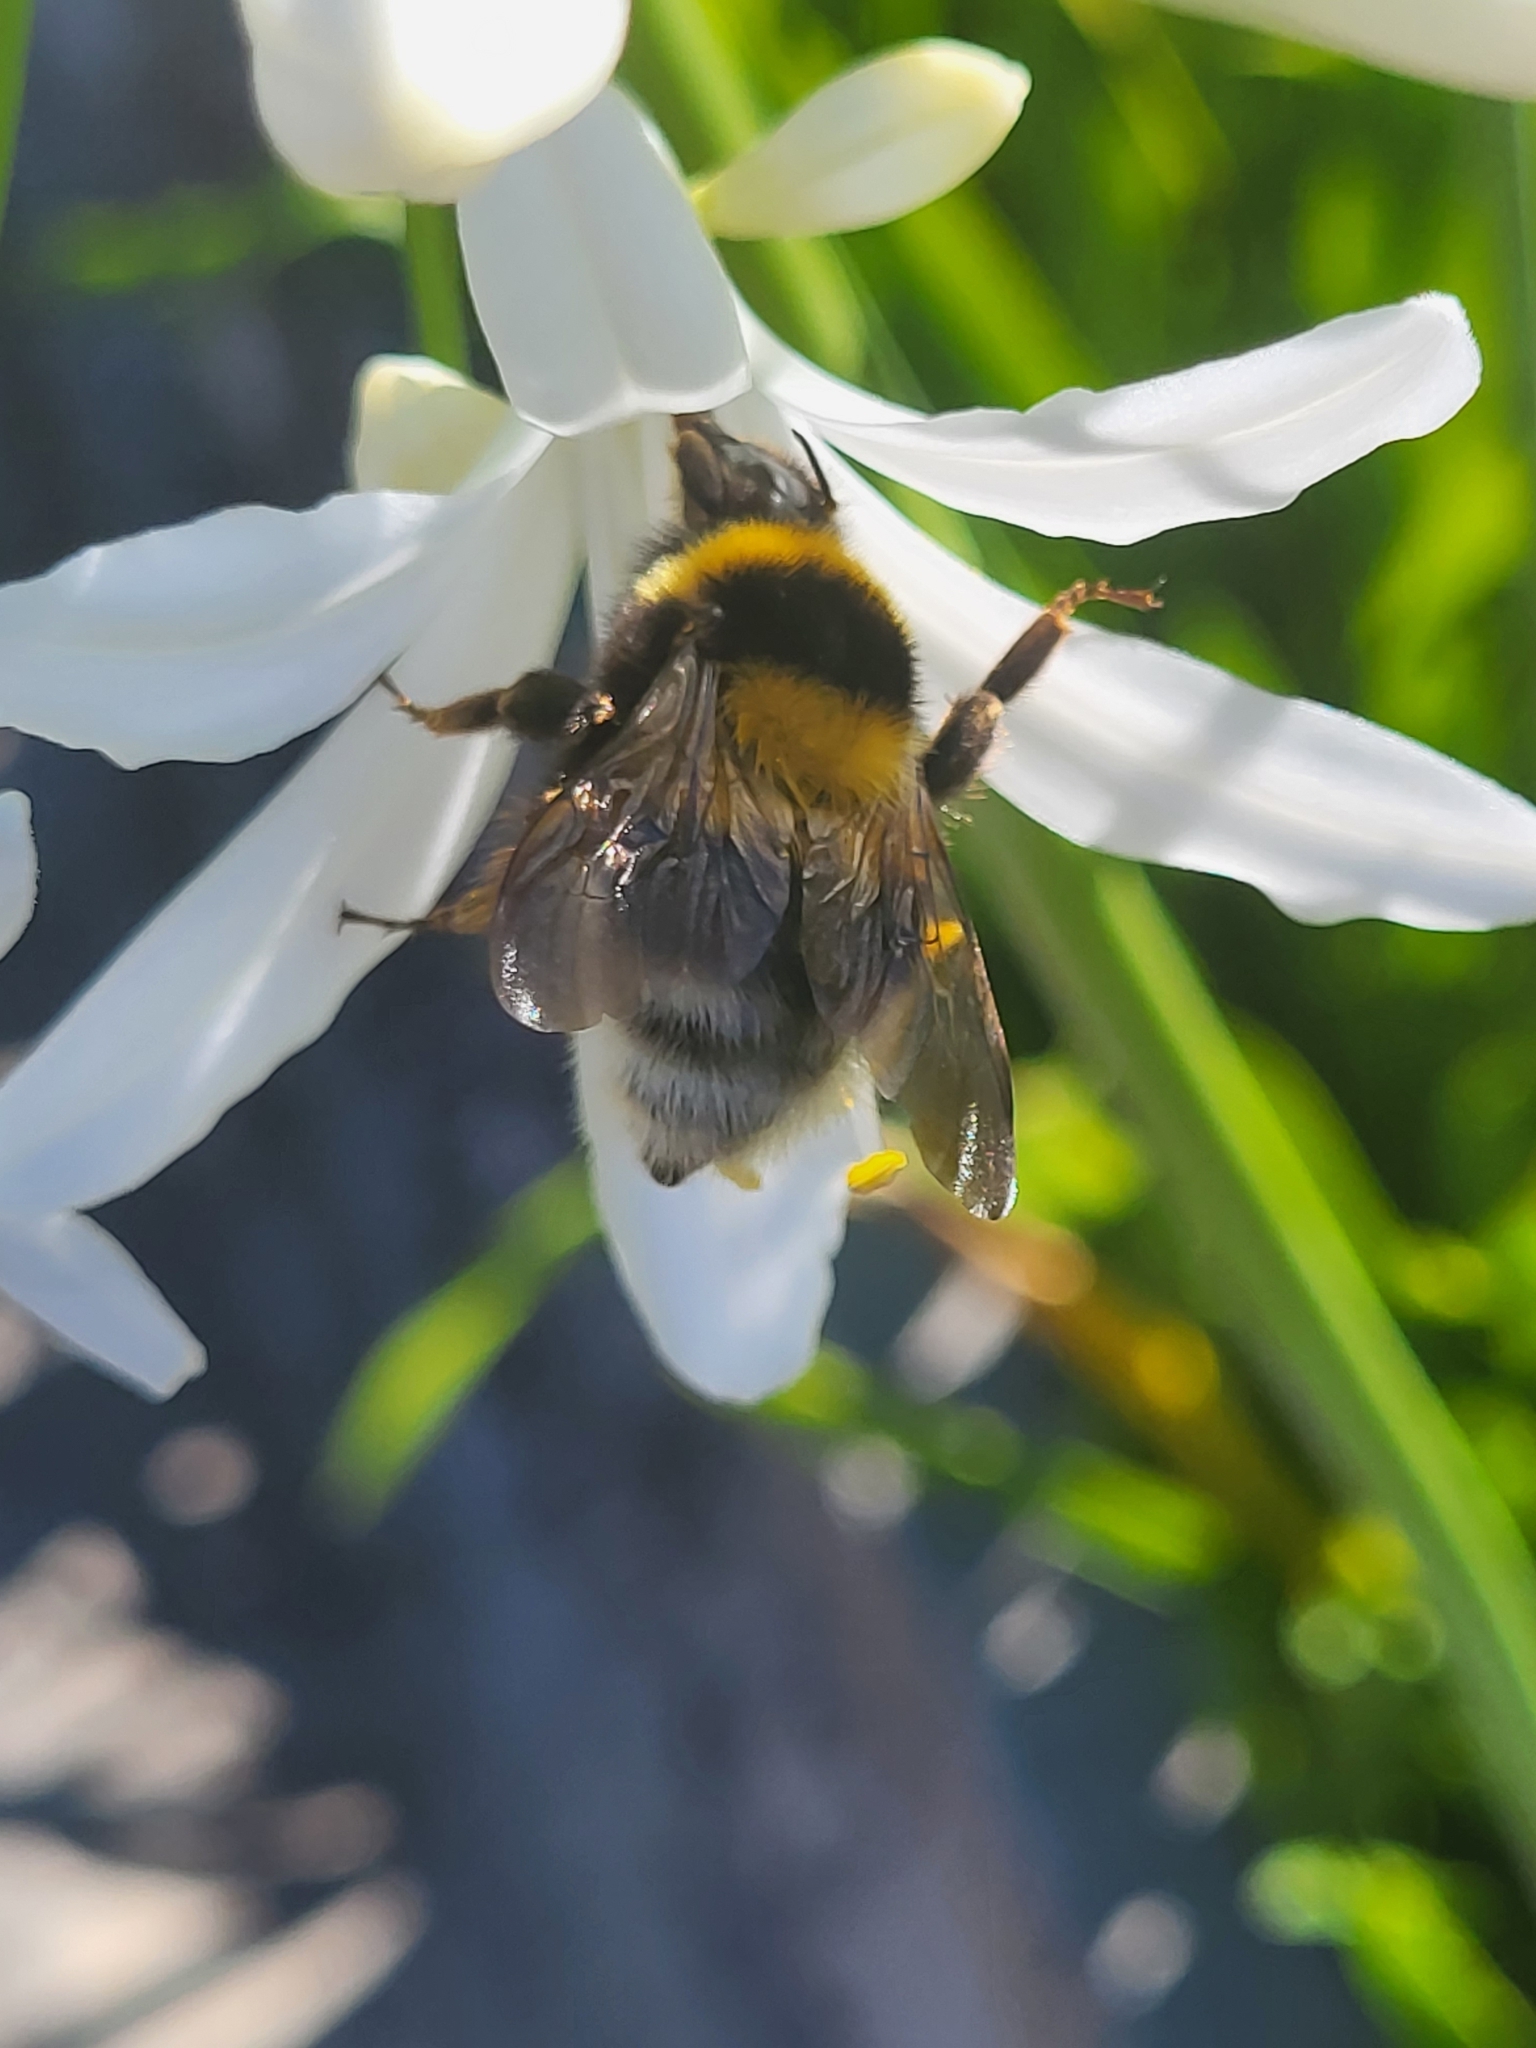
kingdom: Animalia
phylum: Arthropoda
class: Insecta
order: Hymenoptera
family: Apidae
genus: Bombus
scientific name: Bombus ruderatus
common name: Large garden bumblebee
